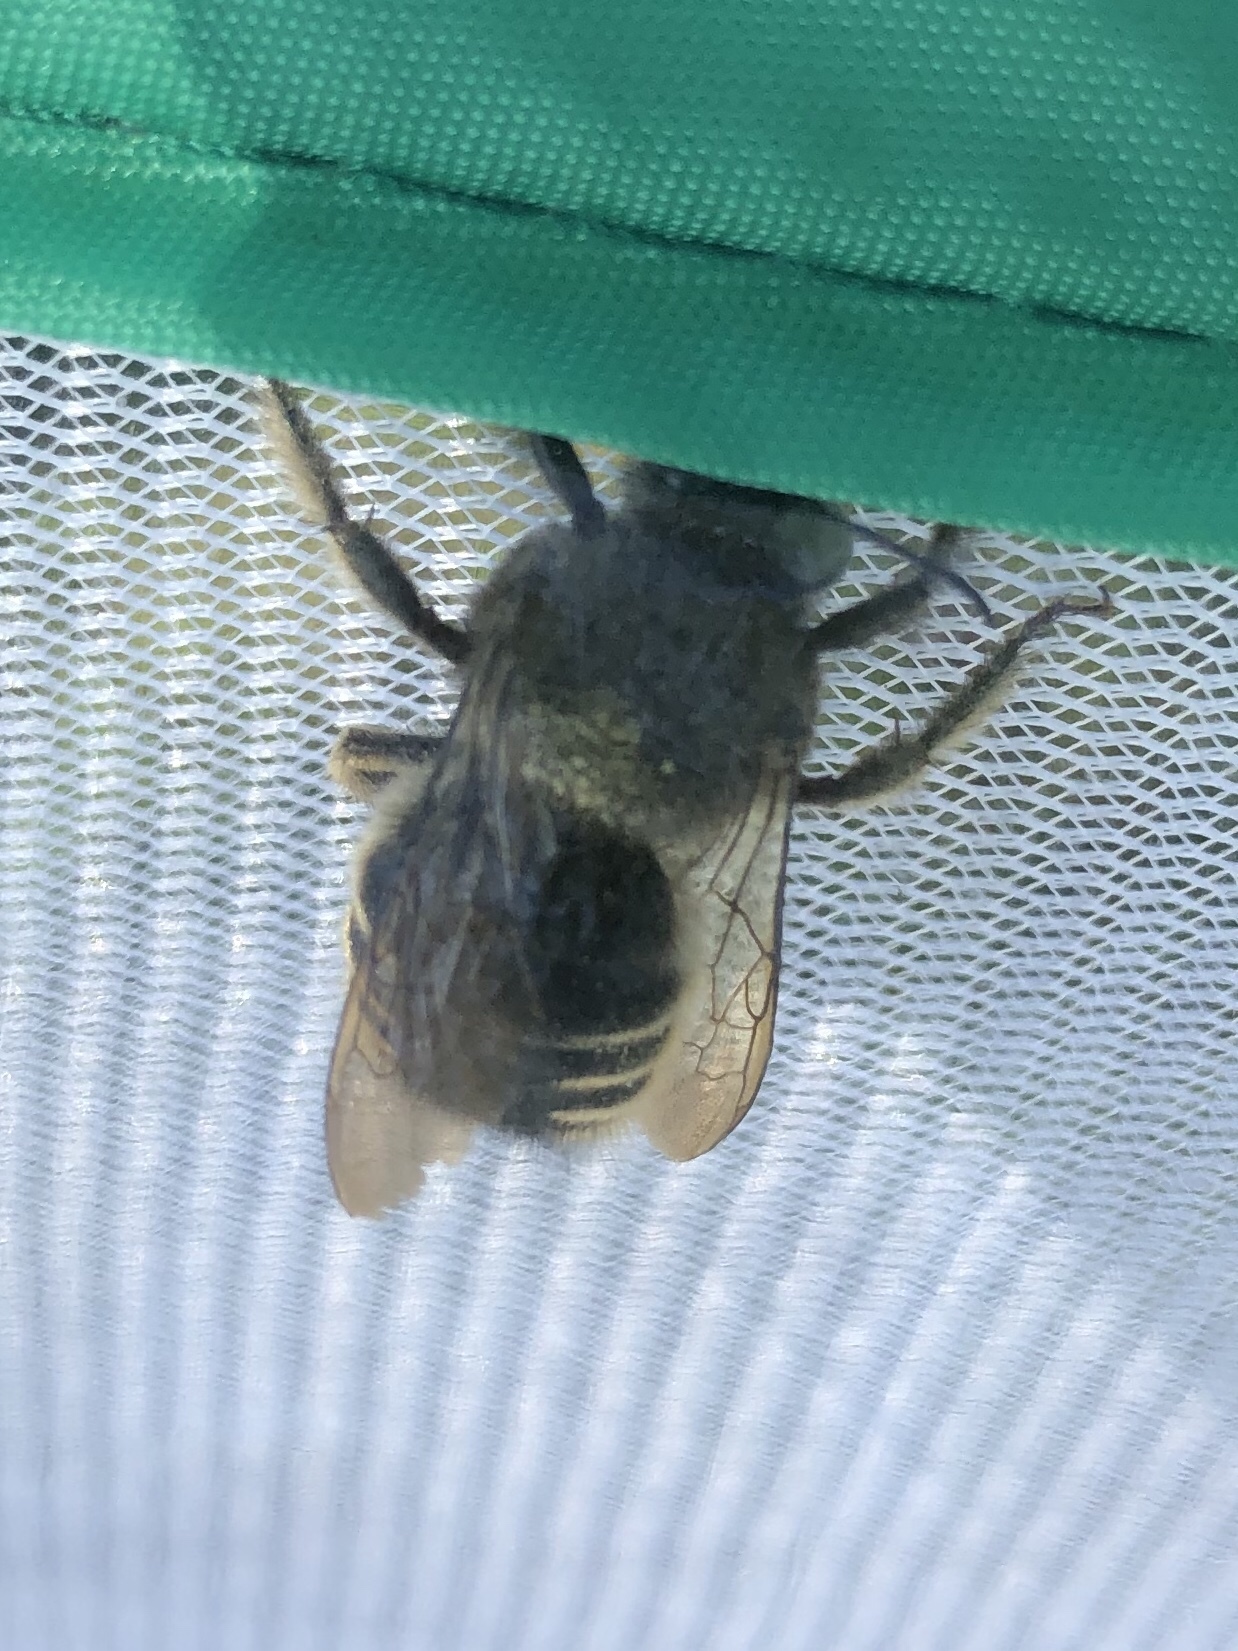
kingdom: Animalia
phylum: Arthropoda
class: Insecta
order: Hymenoptera
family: Apidae
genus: Xylocopa
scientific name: Xylocopa tabaniformis
